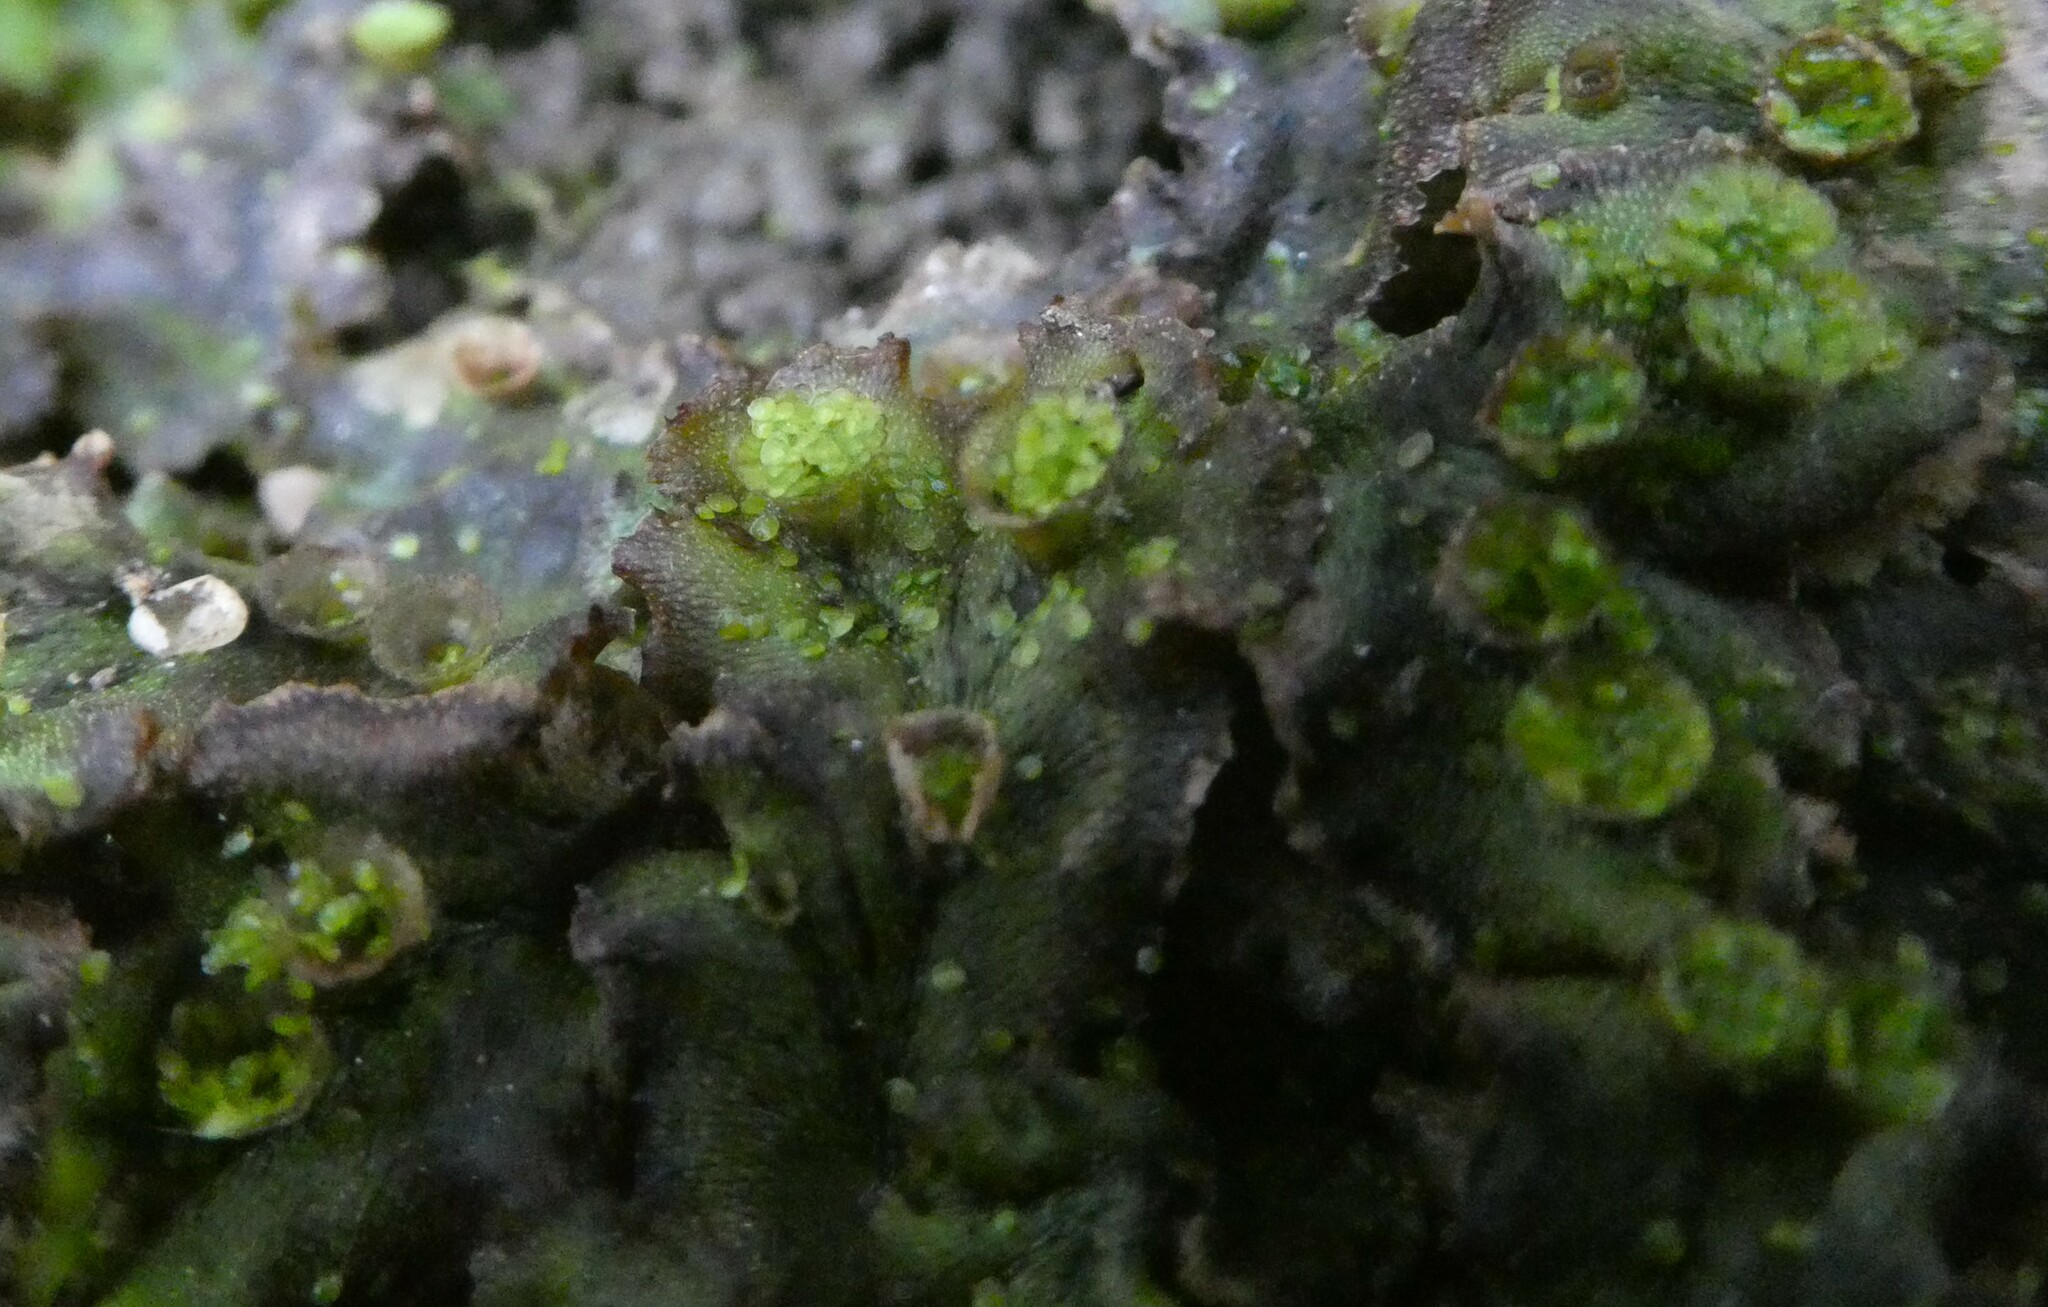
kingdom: Plantae
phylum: Marchantiophyta
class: Marchantiopsida
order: Marchantiales
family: Marchantiaceae
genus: Marchantia
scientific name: Marchantia polymorpha
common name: Common liverwort
